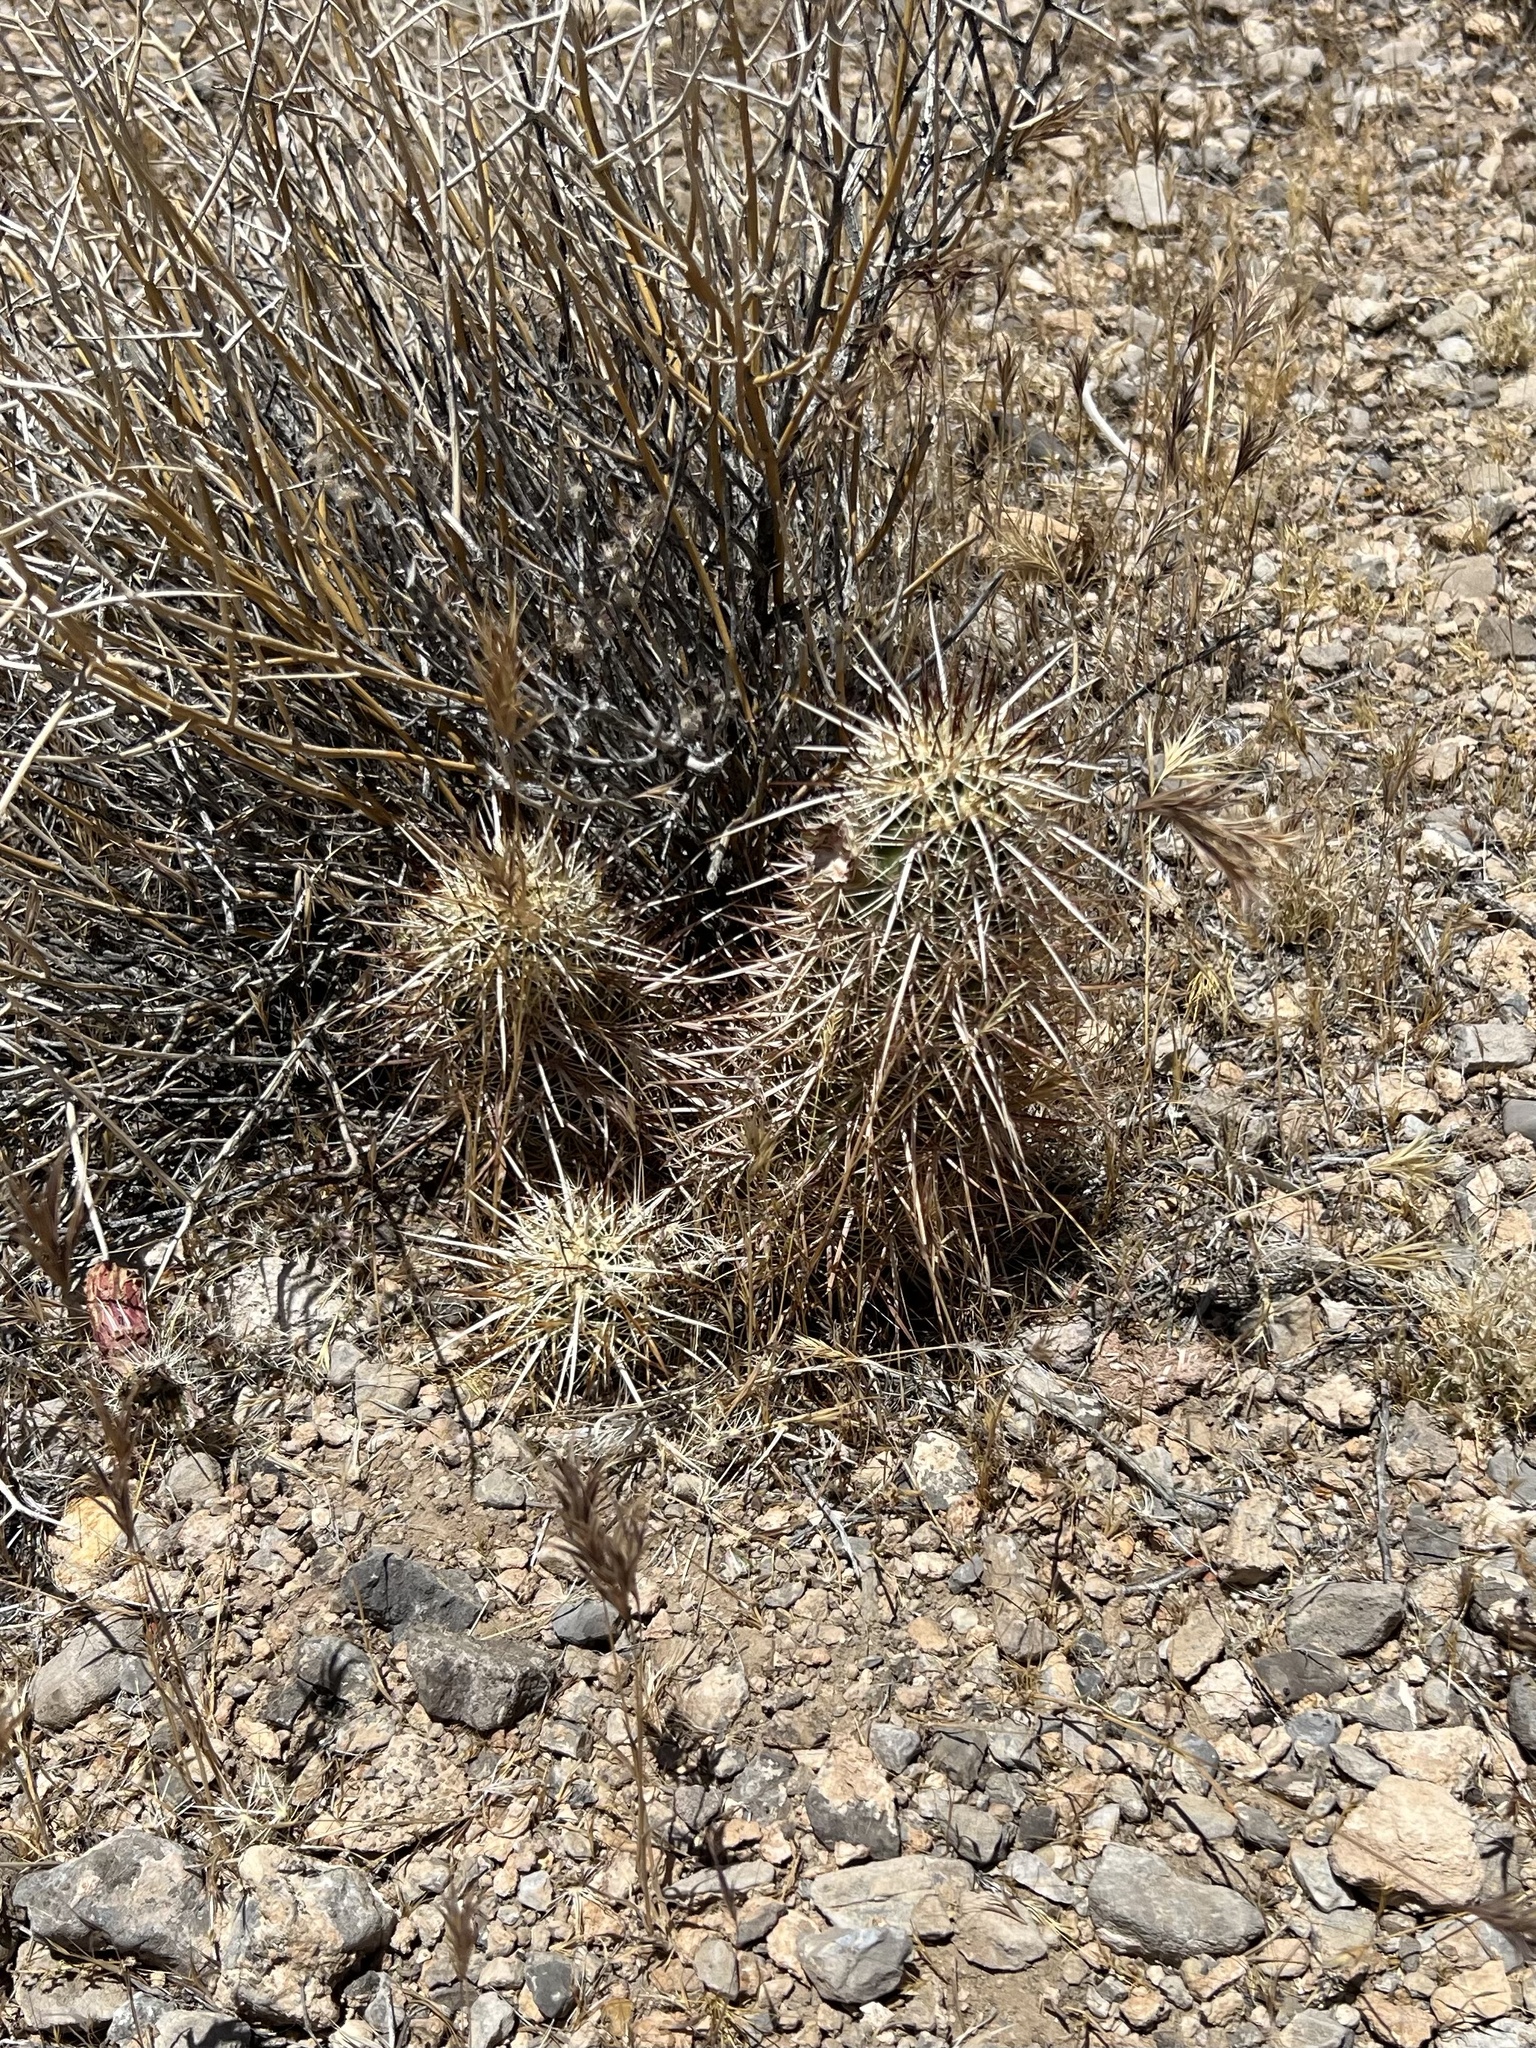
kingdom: Plantae
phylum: Tracheophyta
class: Magnoliopsida
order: Caryophyllales
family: Cactaceae
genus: Echinocereus
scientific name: Echinocereus engelmannii
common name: Engelmann's hedgehog cactus
